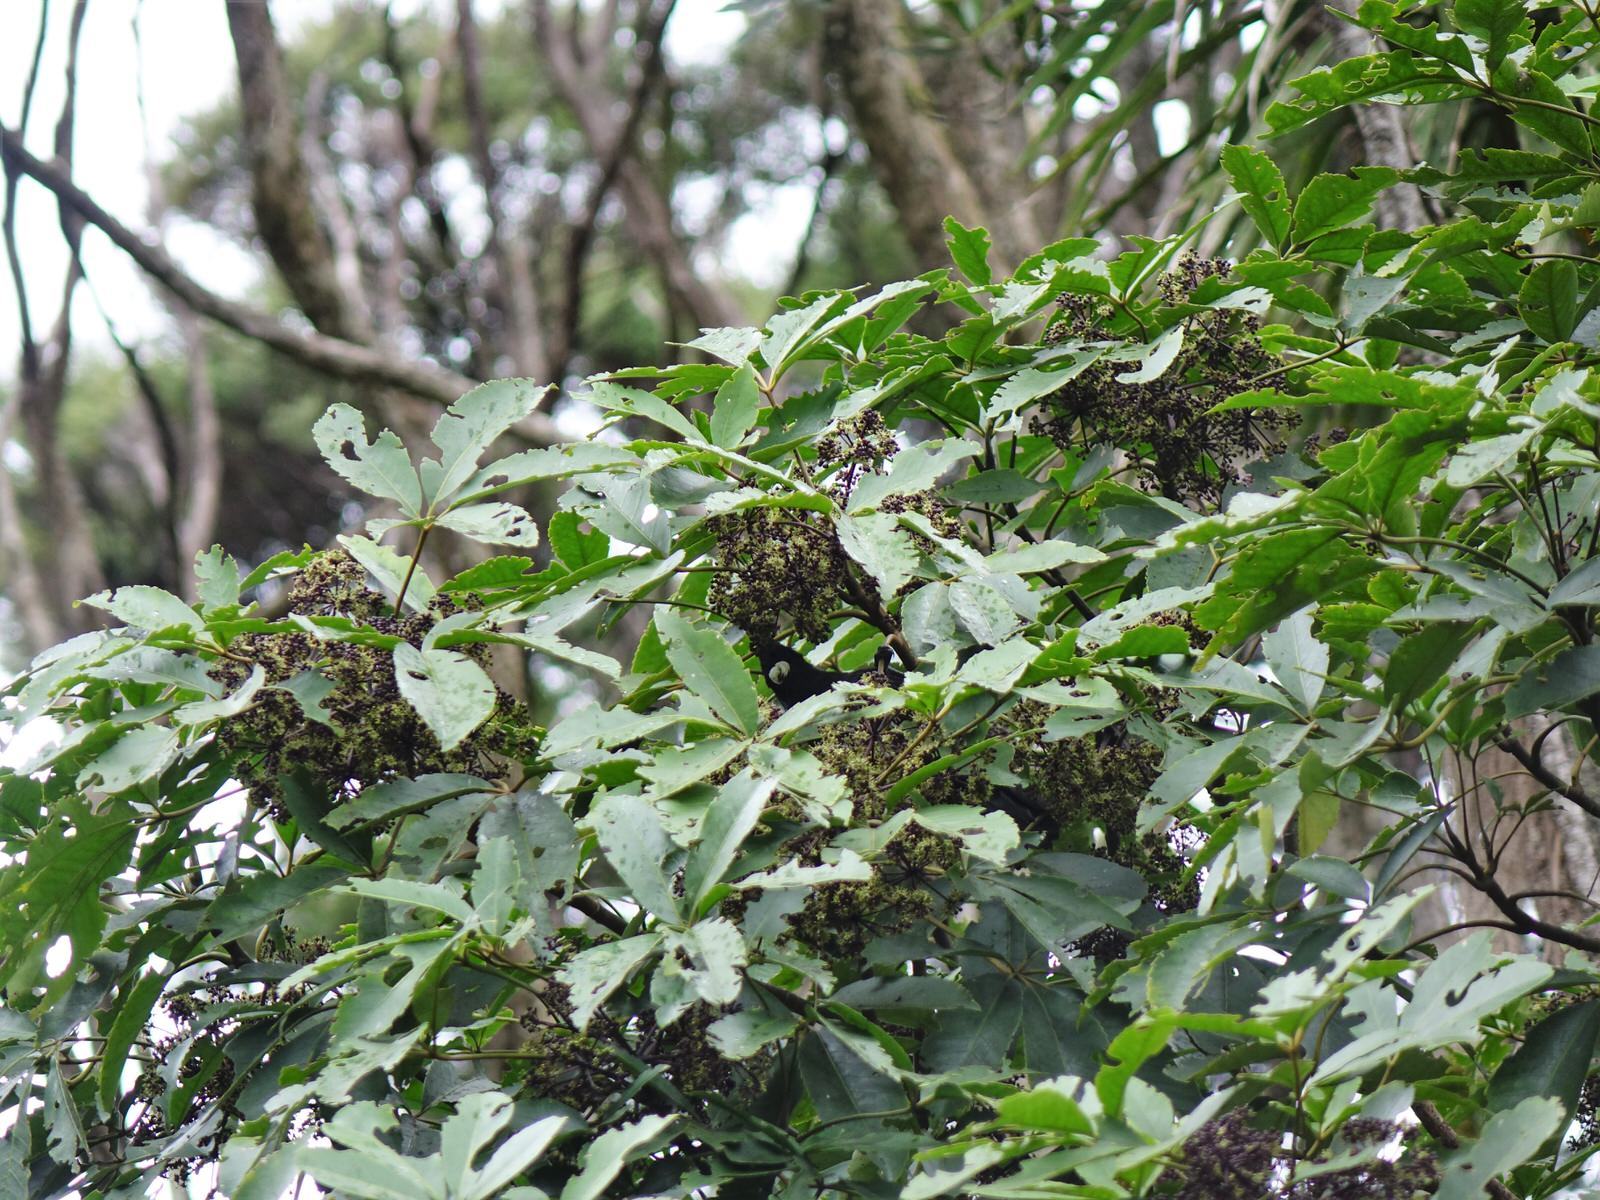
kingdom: Animalia
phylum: Chordata
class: Aves
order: Passeriformes
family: Meliphagidae
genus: Prosthemadera
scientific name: Prosthemadera novaeseelandiae
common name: Tui
